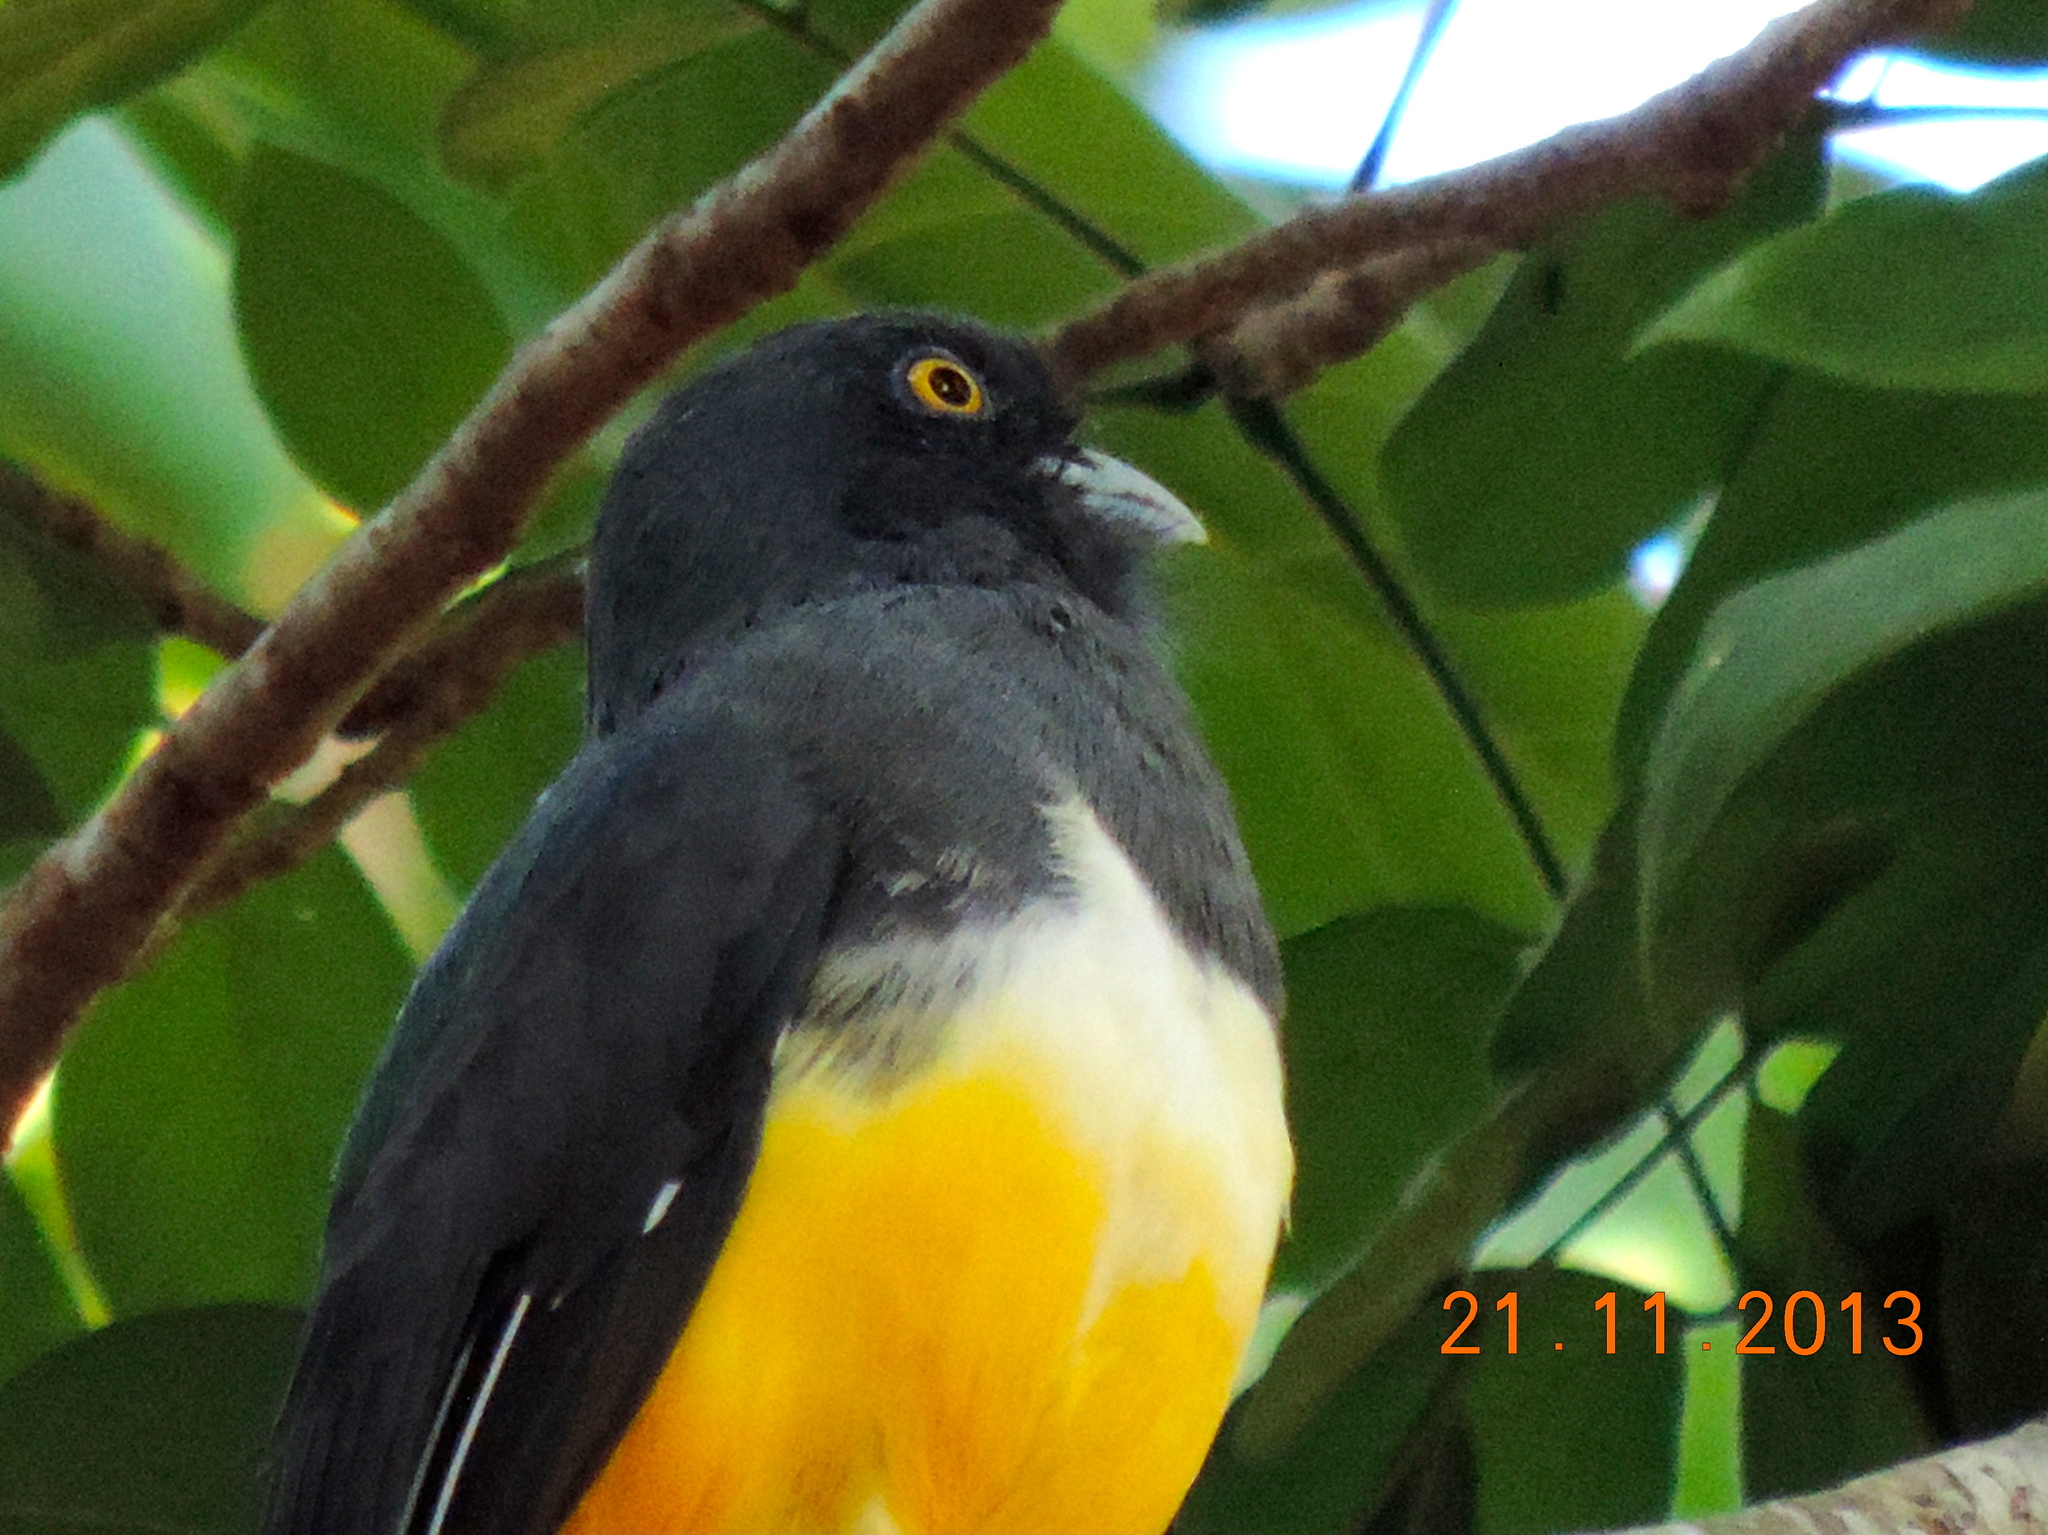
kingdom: Animalia
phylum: Chordata
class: Aves
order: Trogoniformes
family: Trogonidae
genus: Trogon
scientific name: Trogon citreolus
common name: Citreoline trogon
